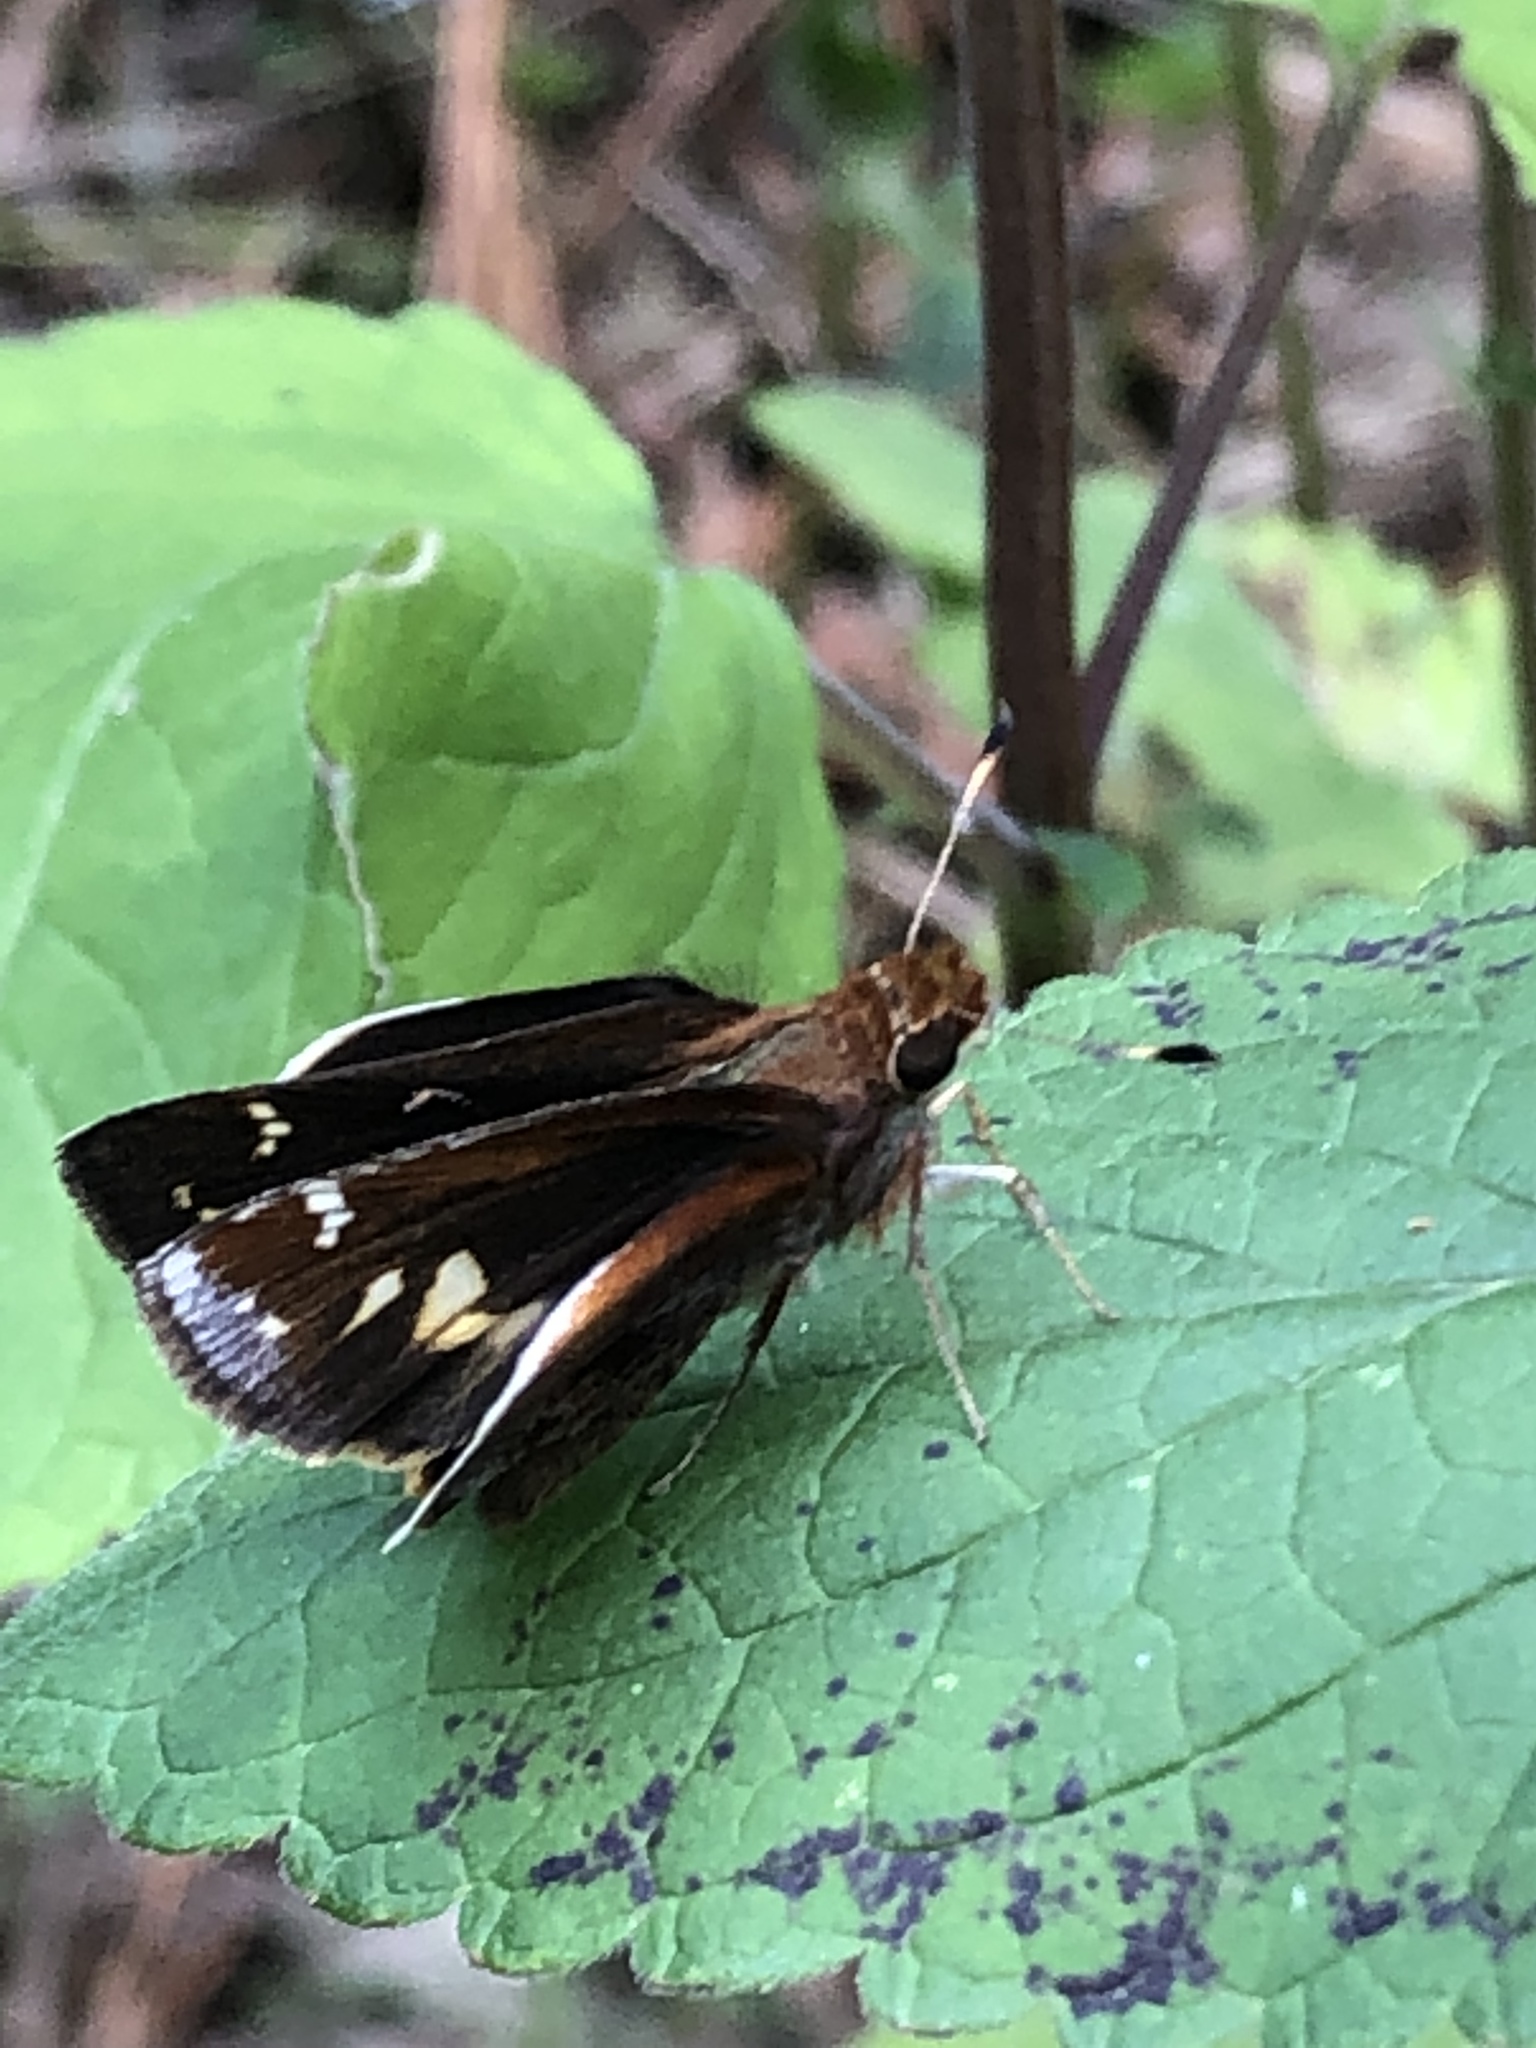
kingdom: Animalia
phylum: Arthropoda
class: Insecta
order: Lepidoptera
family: Hesperiidae
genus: Lon
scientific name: Lon zabulon
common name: Zabulon skipper
